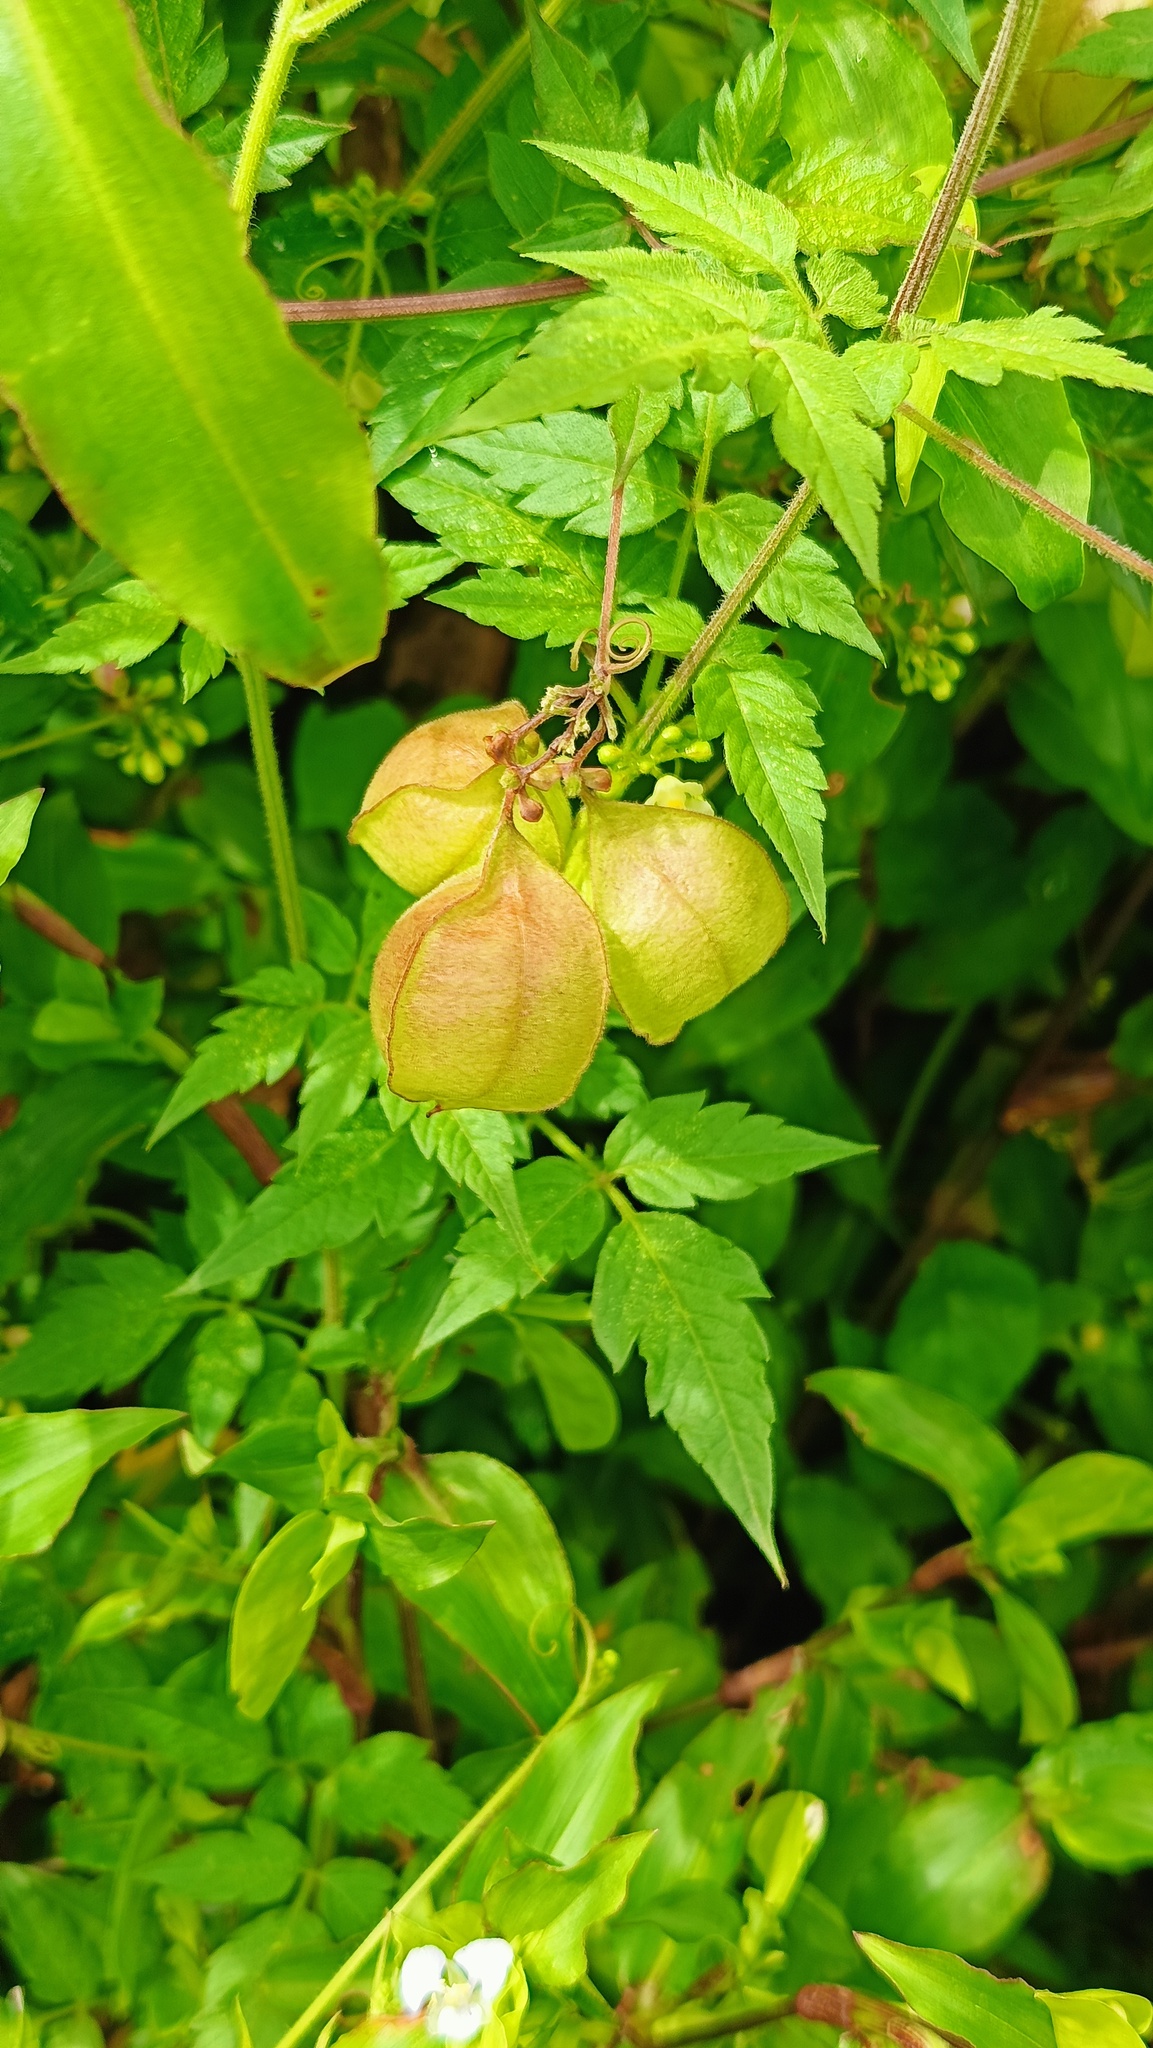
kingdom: Plantae
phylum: Tracheophyta
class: Magnoliopsida
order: Sapindales
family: Sapindaceae
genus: Cardiospermum
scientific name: Cardiospermum halicacabum
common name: Balloon vine
